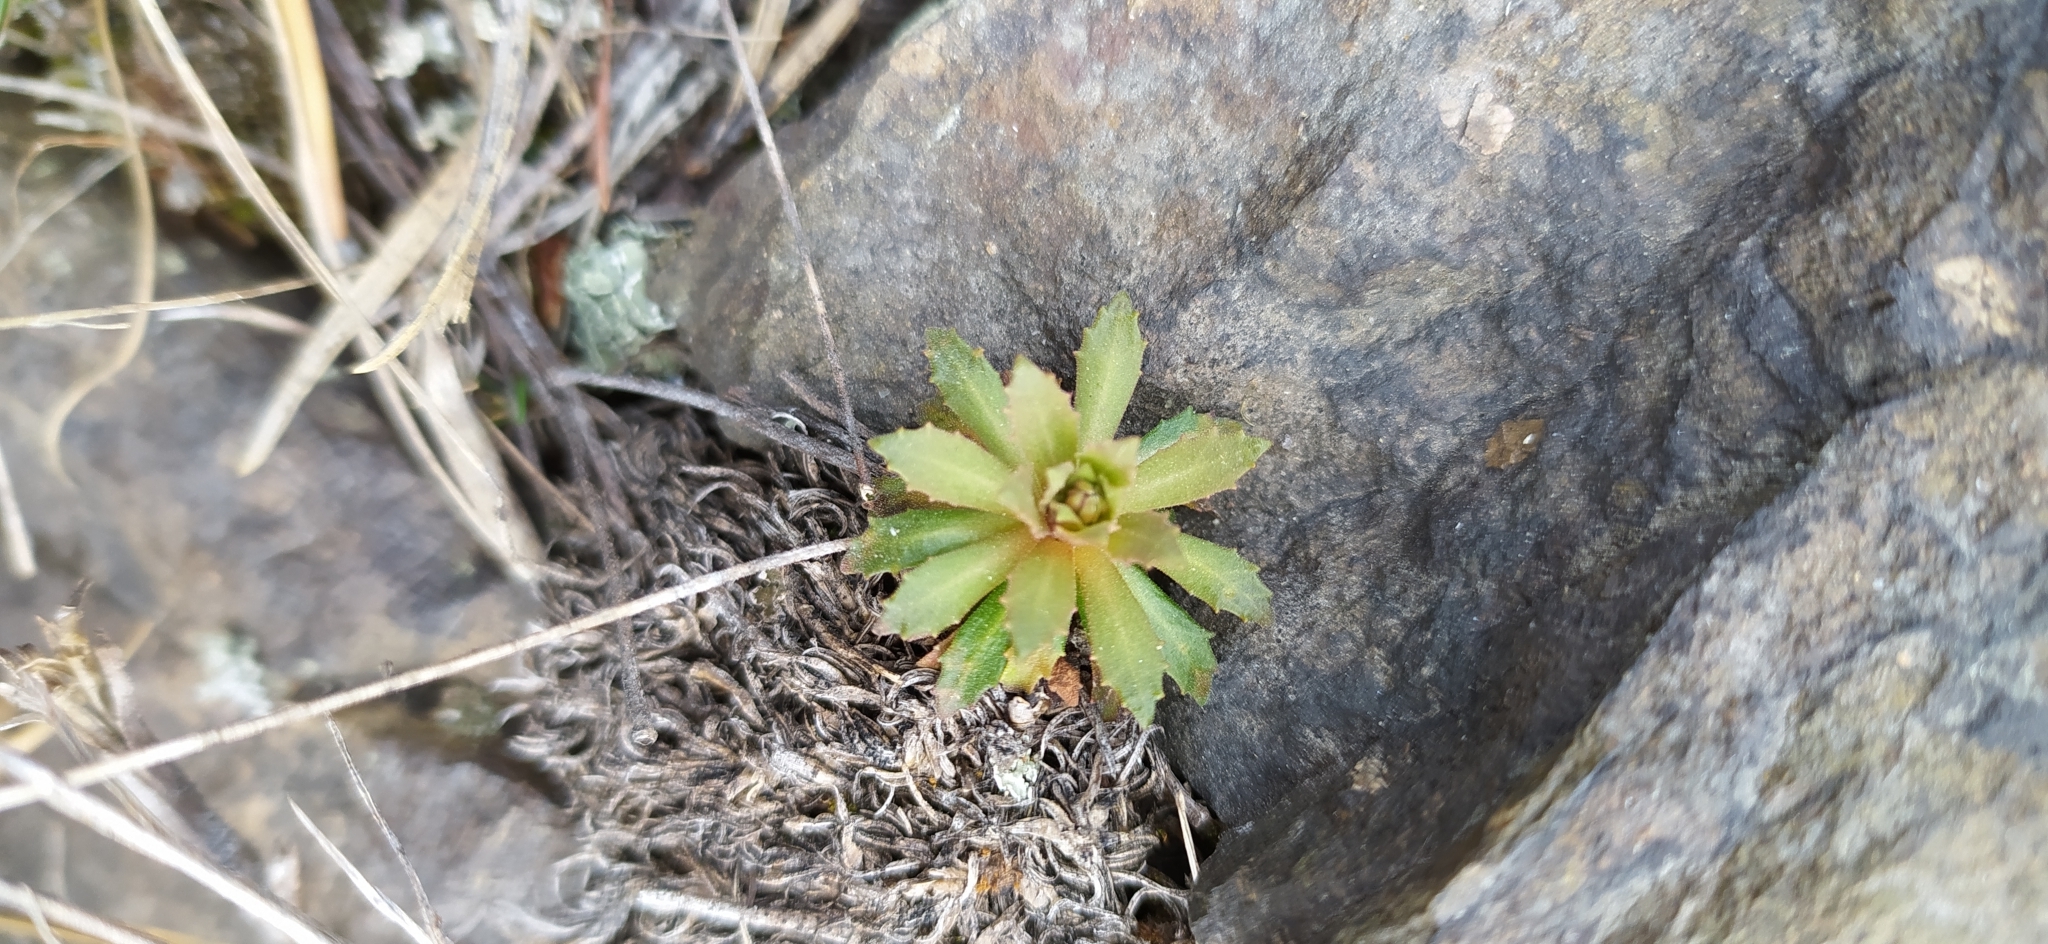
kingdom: Plantae
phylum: Tracheophyta
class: Magnoliopsida
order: Ericales
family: Primulaceae
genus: Androsace
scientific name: Androsace septentrionalis
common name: Hairy northern fairy-candelabra
